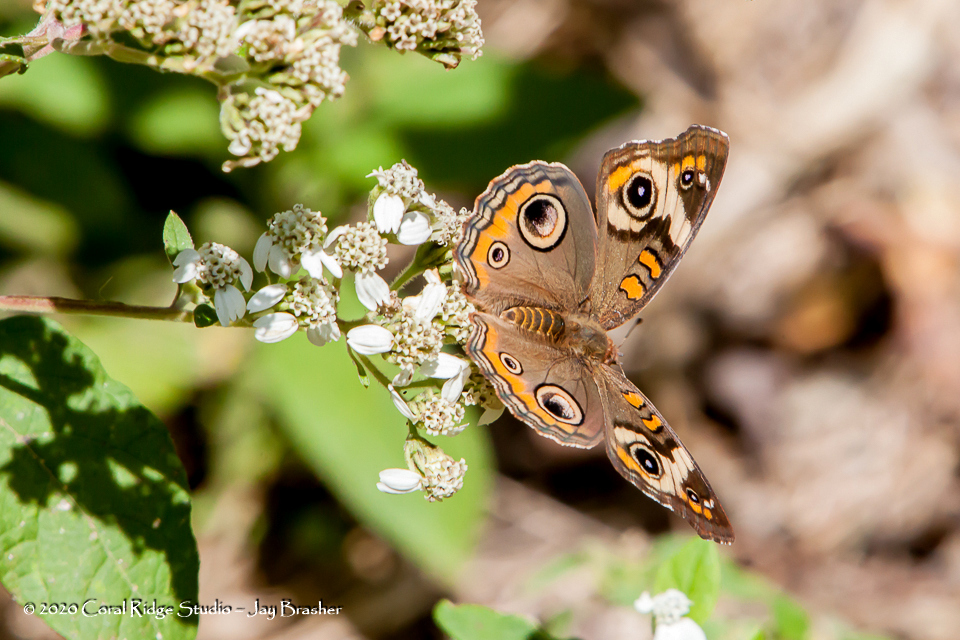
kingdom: Animalia
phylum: Arthropoda
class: Insecta
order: Lepidoptera
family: Nymphalidae
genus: Junonia
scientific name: Junonia coenia
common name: Common buckeye
